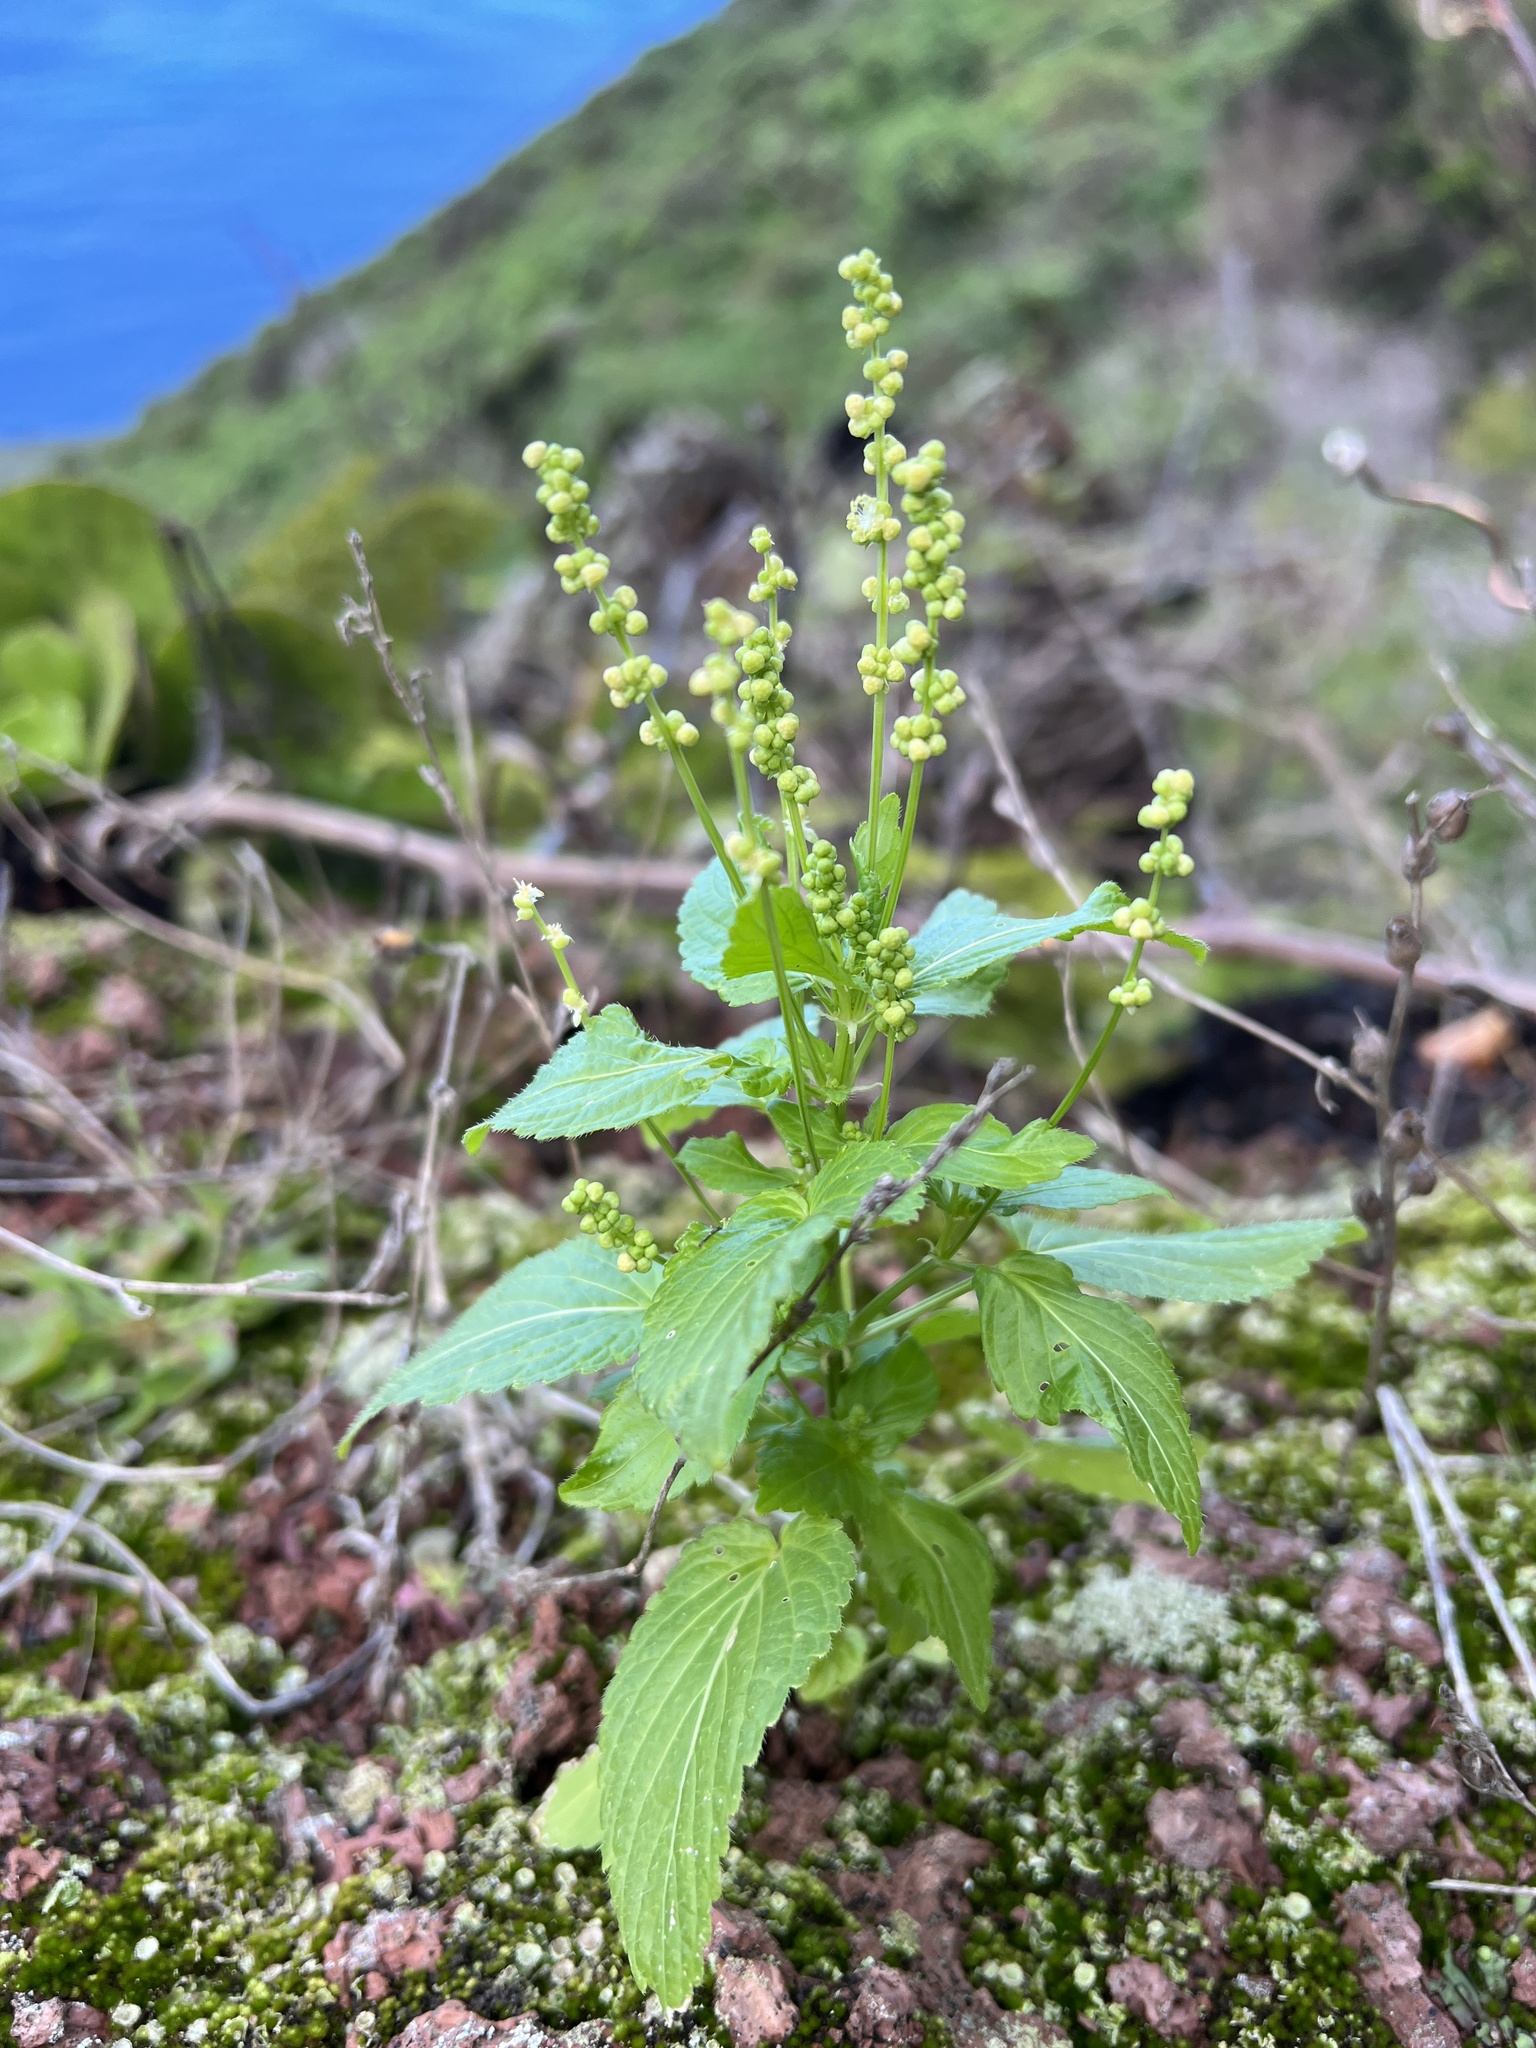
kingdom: Plantae
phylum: Tracheophyta
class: Magnoliopsida
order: Malpighiales
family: Euphorbiaceae
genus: Mercurialis
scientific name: Mercurialis annua
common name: Annual mercury
